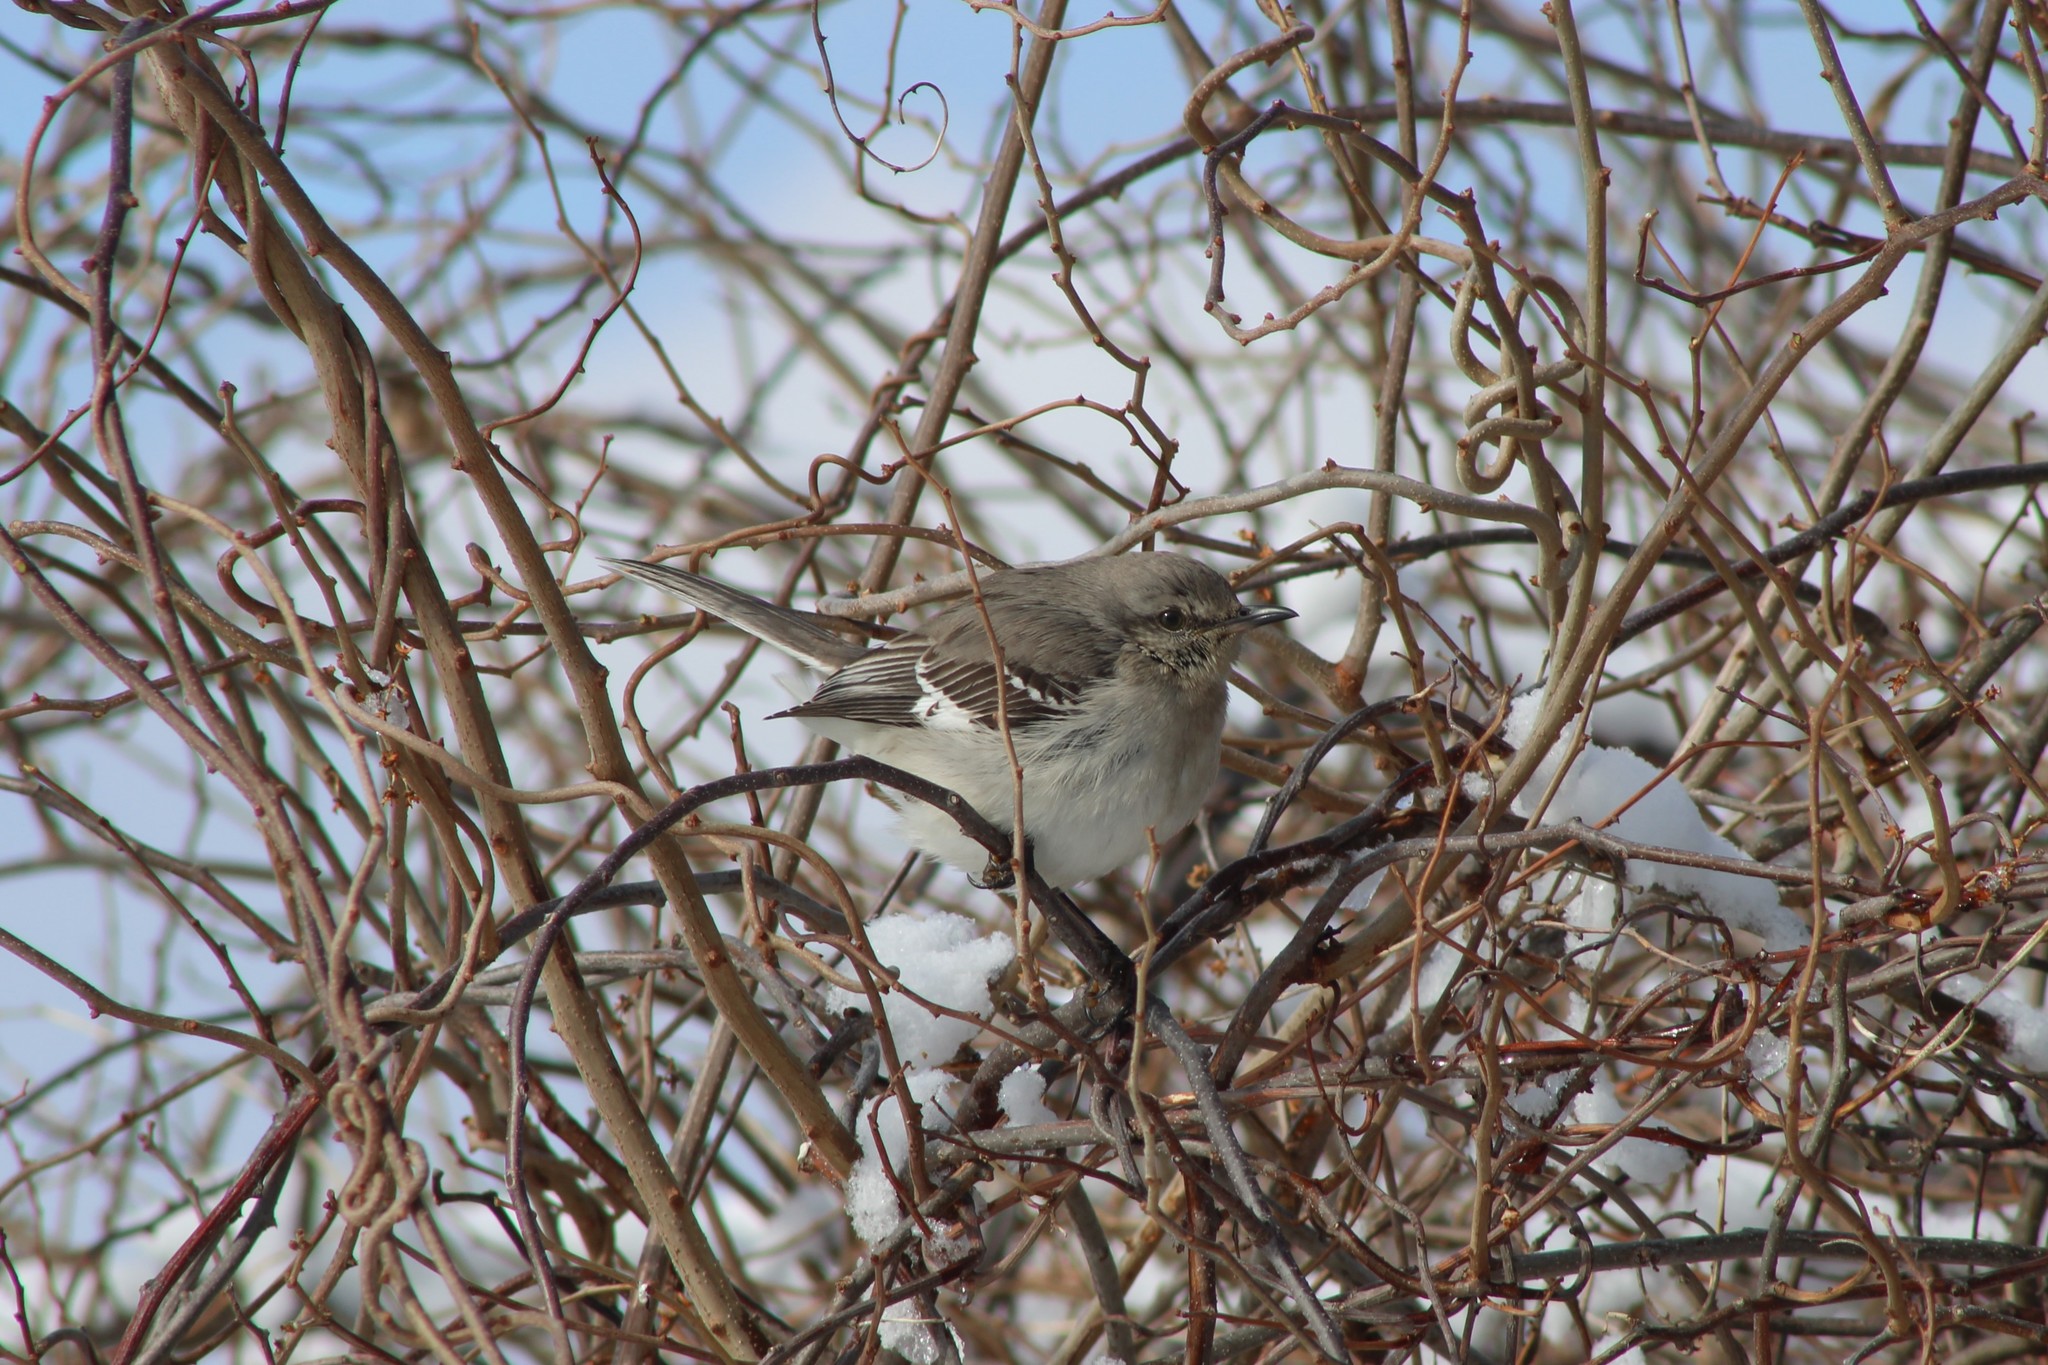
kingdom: Animalia
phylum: Chordata
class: Aves
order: Passeriformes
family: Mimidae
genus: Mimus
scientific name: Mimus polyglottos
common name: Northern mockingbird
